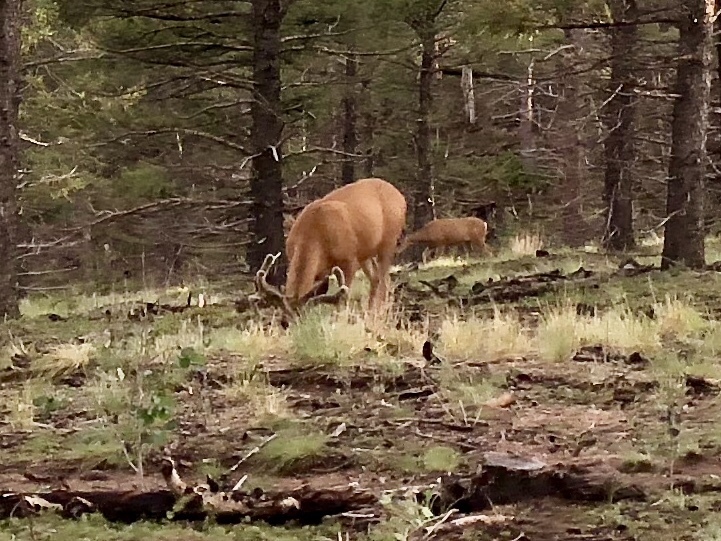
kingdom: Animalia
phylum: Chordata
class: Mammalia
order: Artiodactyla
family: Cervidae
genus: Odocoileus
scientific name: Odocoileus hemionus
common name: Mule deer
